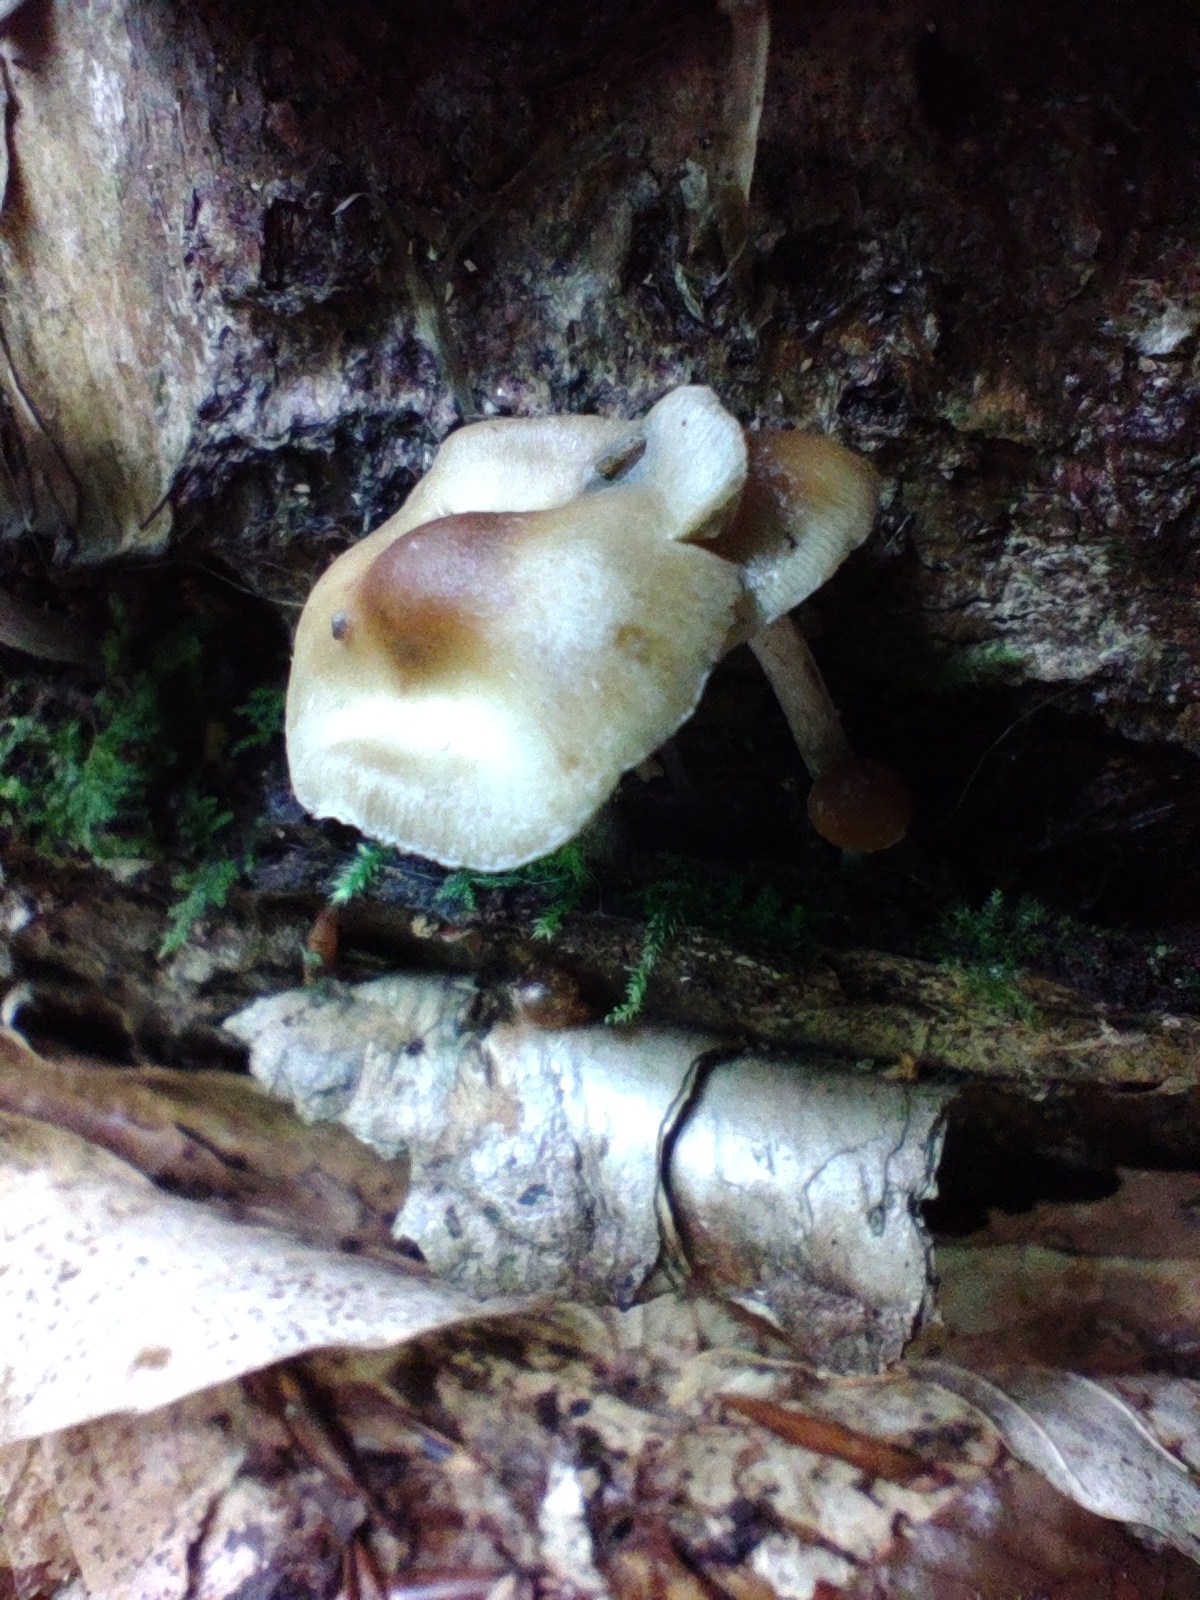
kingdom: Fungi
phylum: Basidiomycota
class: Agaricomycetes
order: Agaricales
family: Hymenogastraceae
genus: Psilocybe
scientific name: Psilocybe caerulipes
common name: Blue-foot
